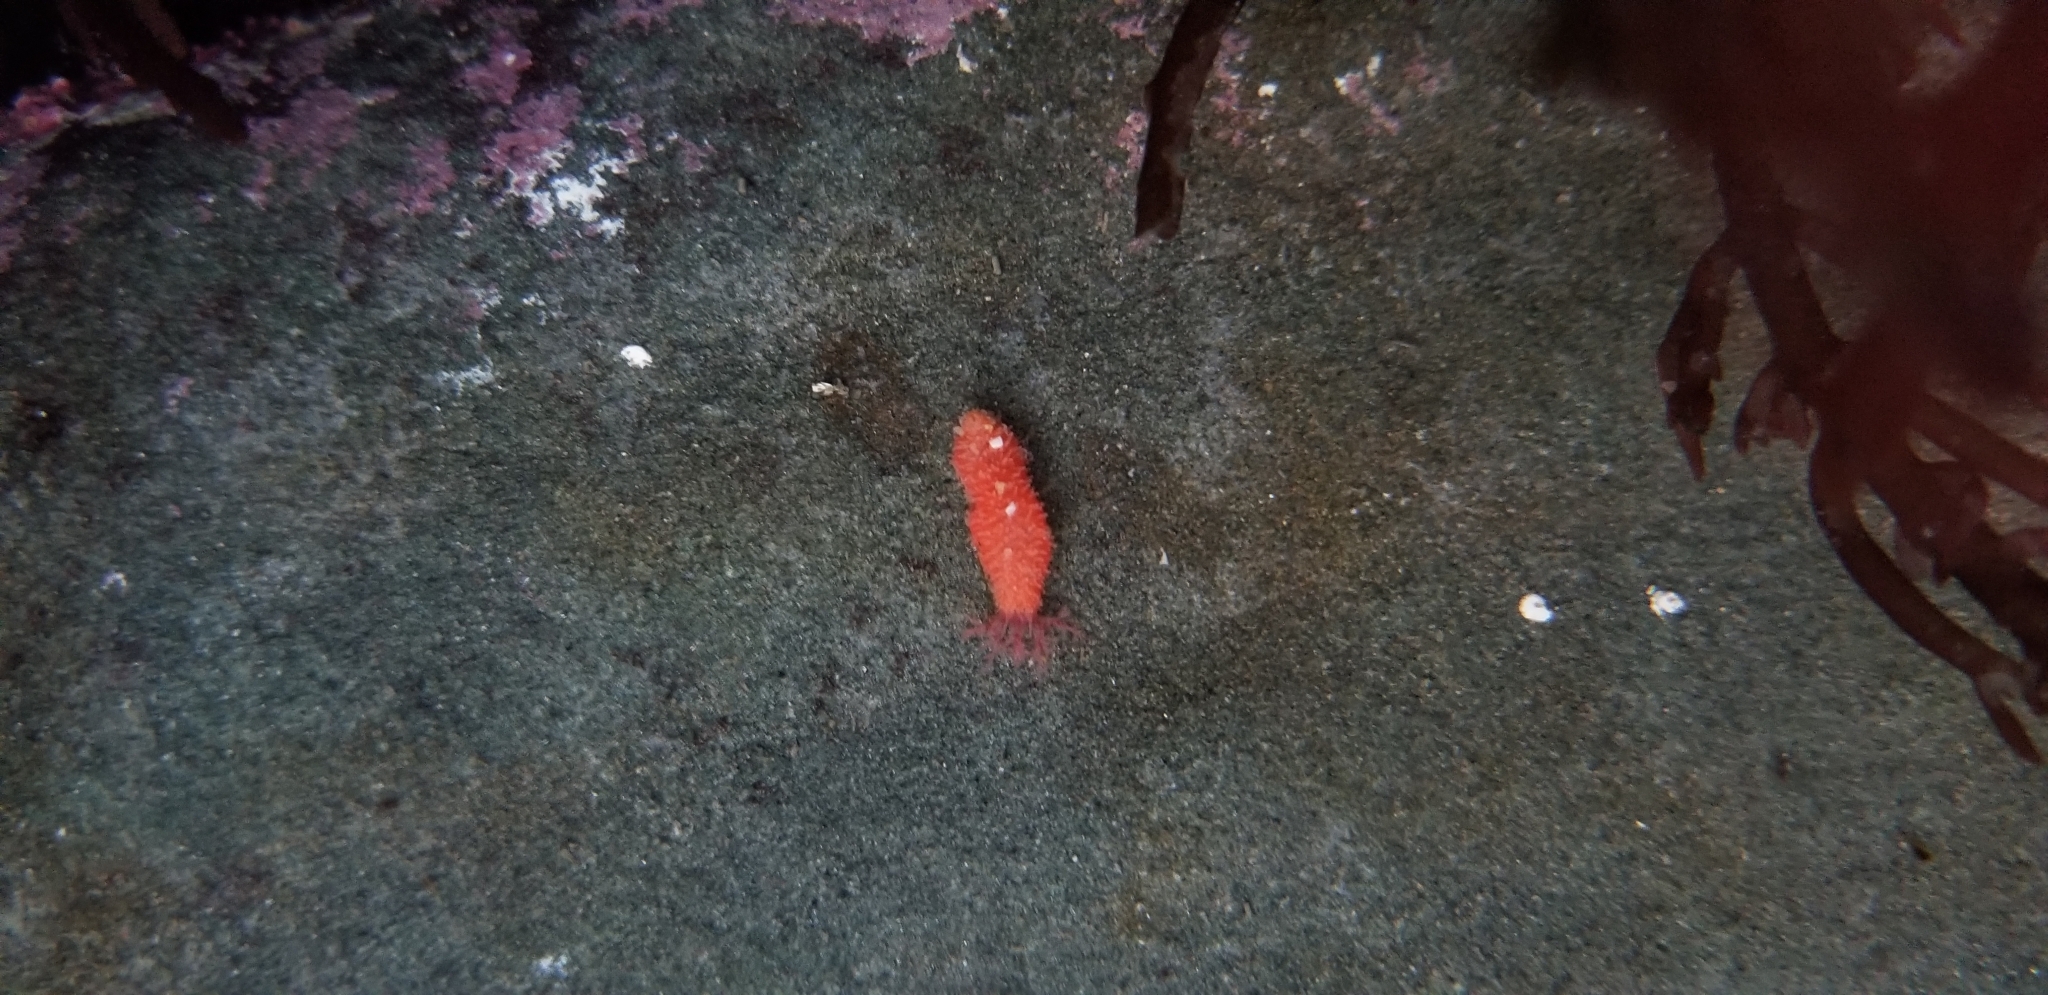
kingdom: Animalia
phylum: Echinodermata
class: Holothuroidea
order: Dendrochirotida
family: Psolidae
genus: Lissothuria
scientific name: Lissothuria nutriens
